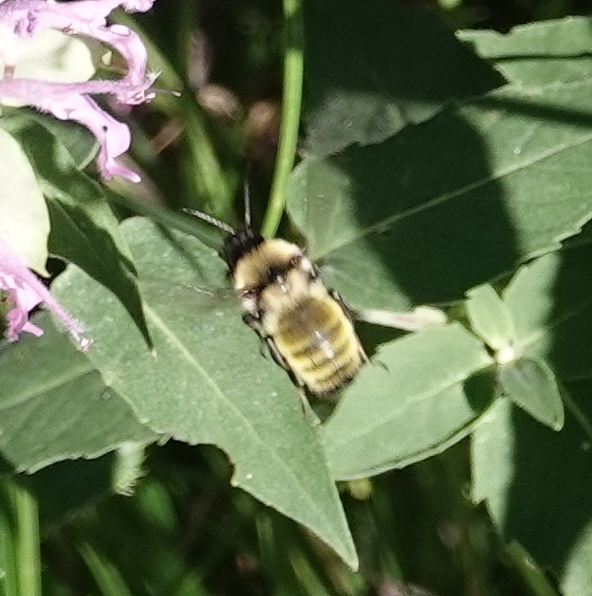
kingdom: Animalia
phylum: Arthropoda
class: Insecta
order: Hymenoptera
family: Apidae
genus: Bombus
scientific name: Bombus fervidus
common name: Yellow bumble bee
